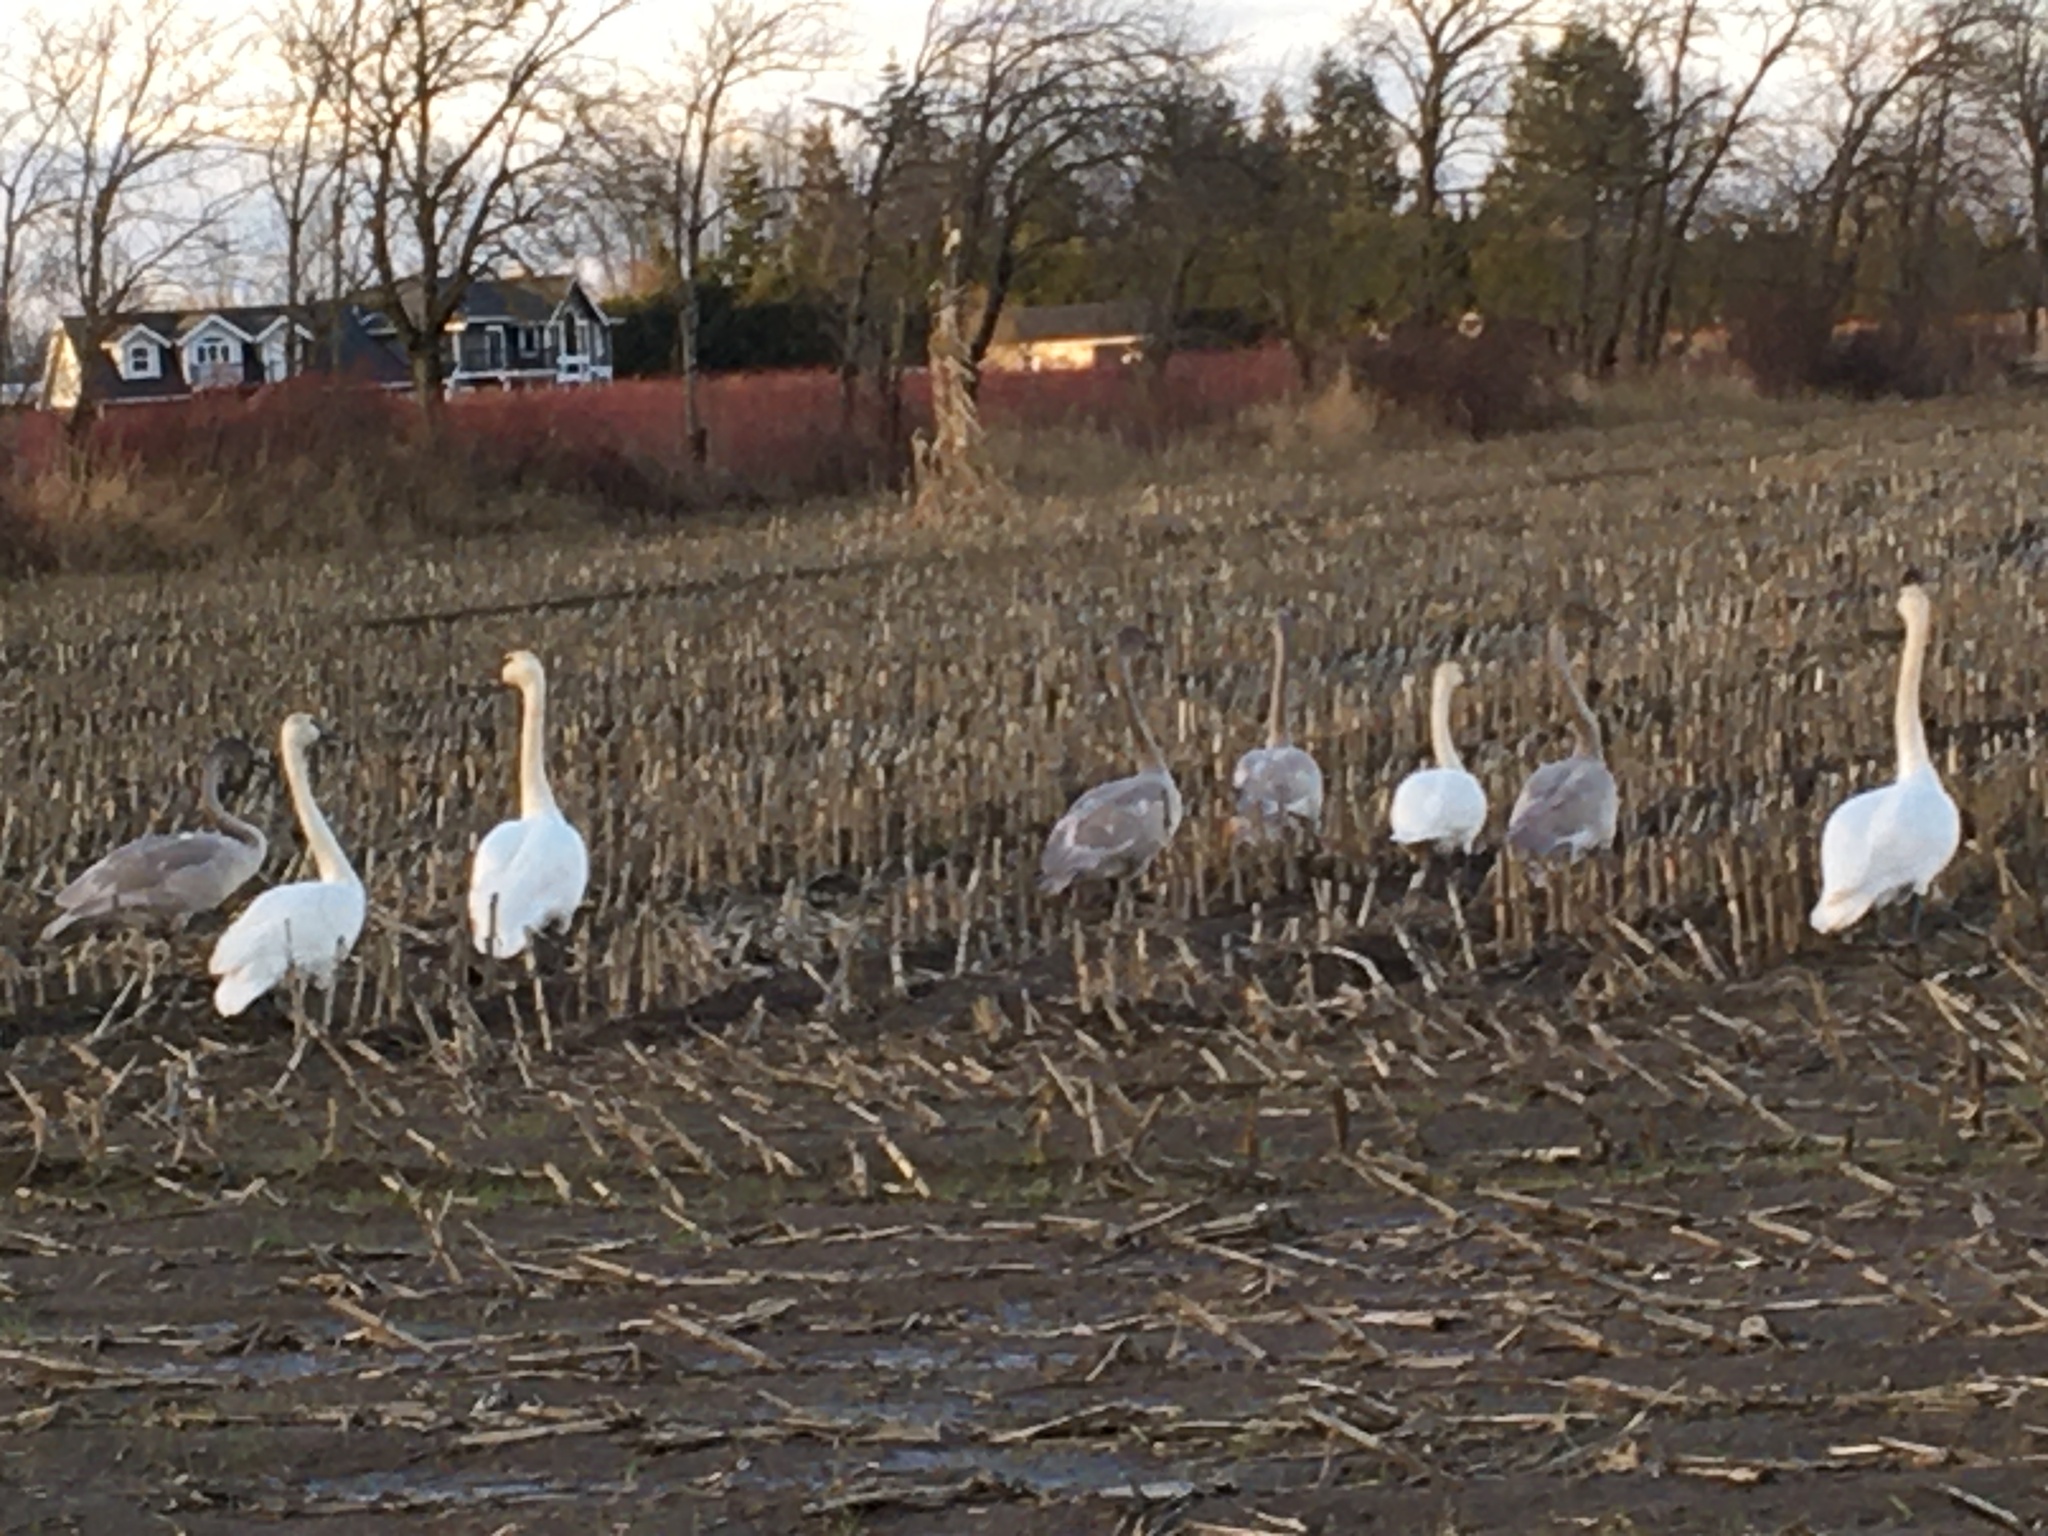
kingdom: Animalia
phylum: Chordata
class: Aves
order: Anseriformes
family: Anatidae
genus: Cygnus
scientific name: Cygnus buccinator
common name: Trumpeter swan
